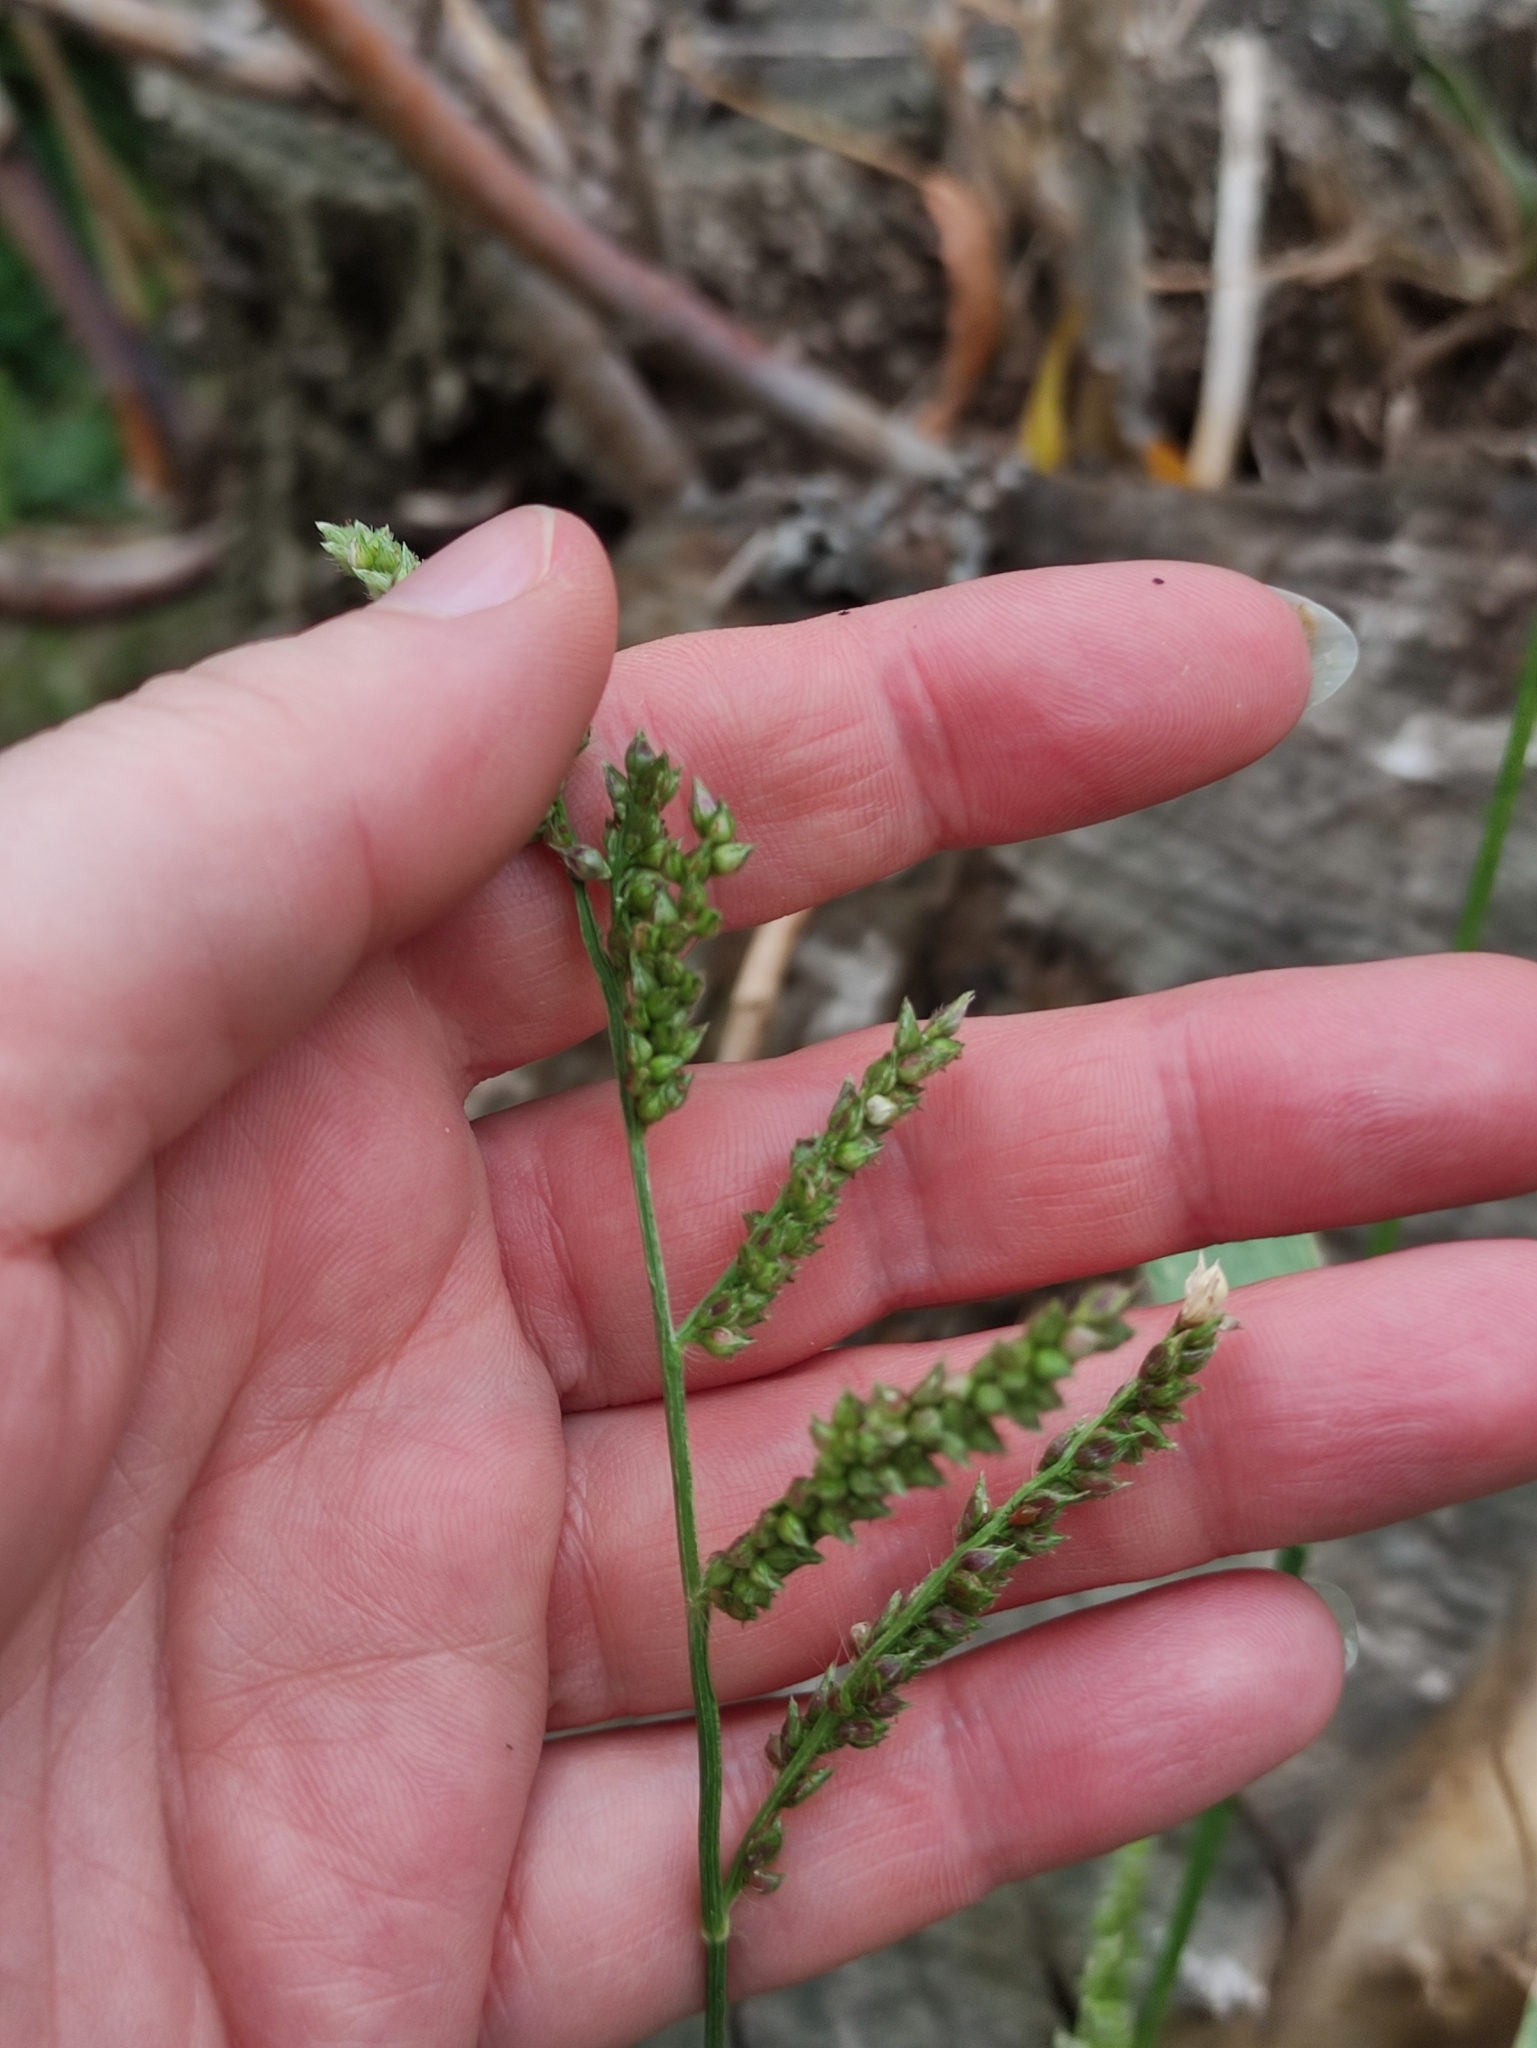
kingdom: Plantae
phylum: Tracheophyta
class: Liliopsida
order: Poales
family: Poaceae
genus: Echinochloa
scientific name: Echinochloa crus-galli
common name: Cockspur
